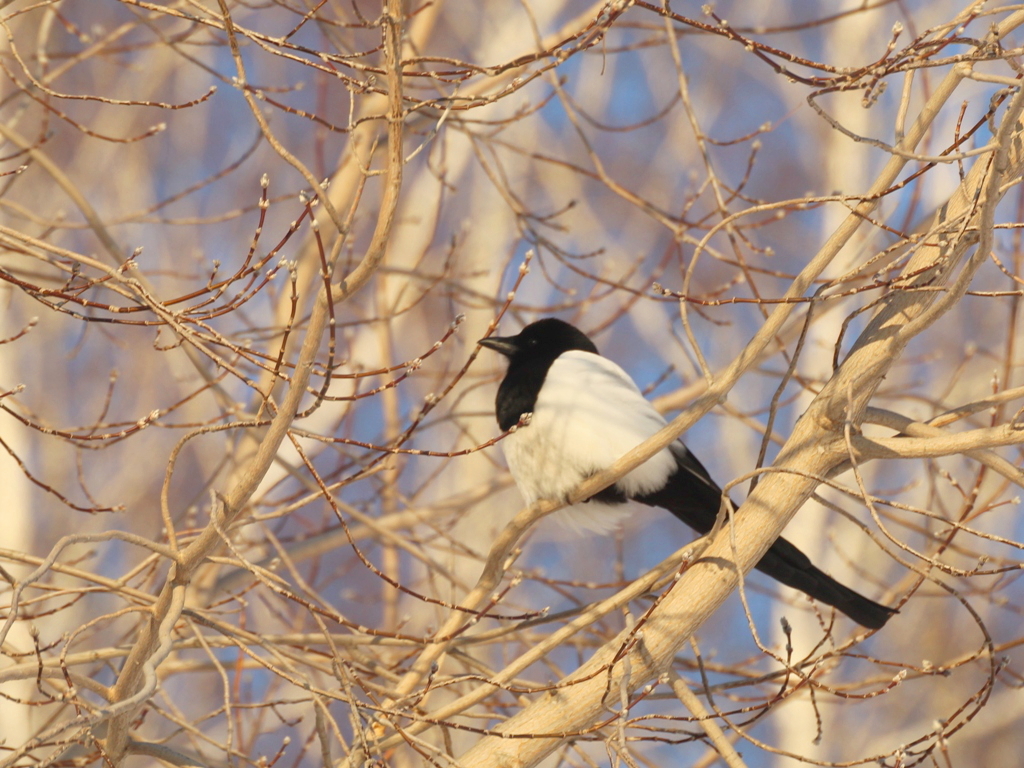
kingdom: Animalia
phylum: Chordata
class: Aves
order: Passeriformes
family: Corvidae
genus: Pica
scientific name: Pica pica
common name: Eurasian magpie
